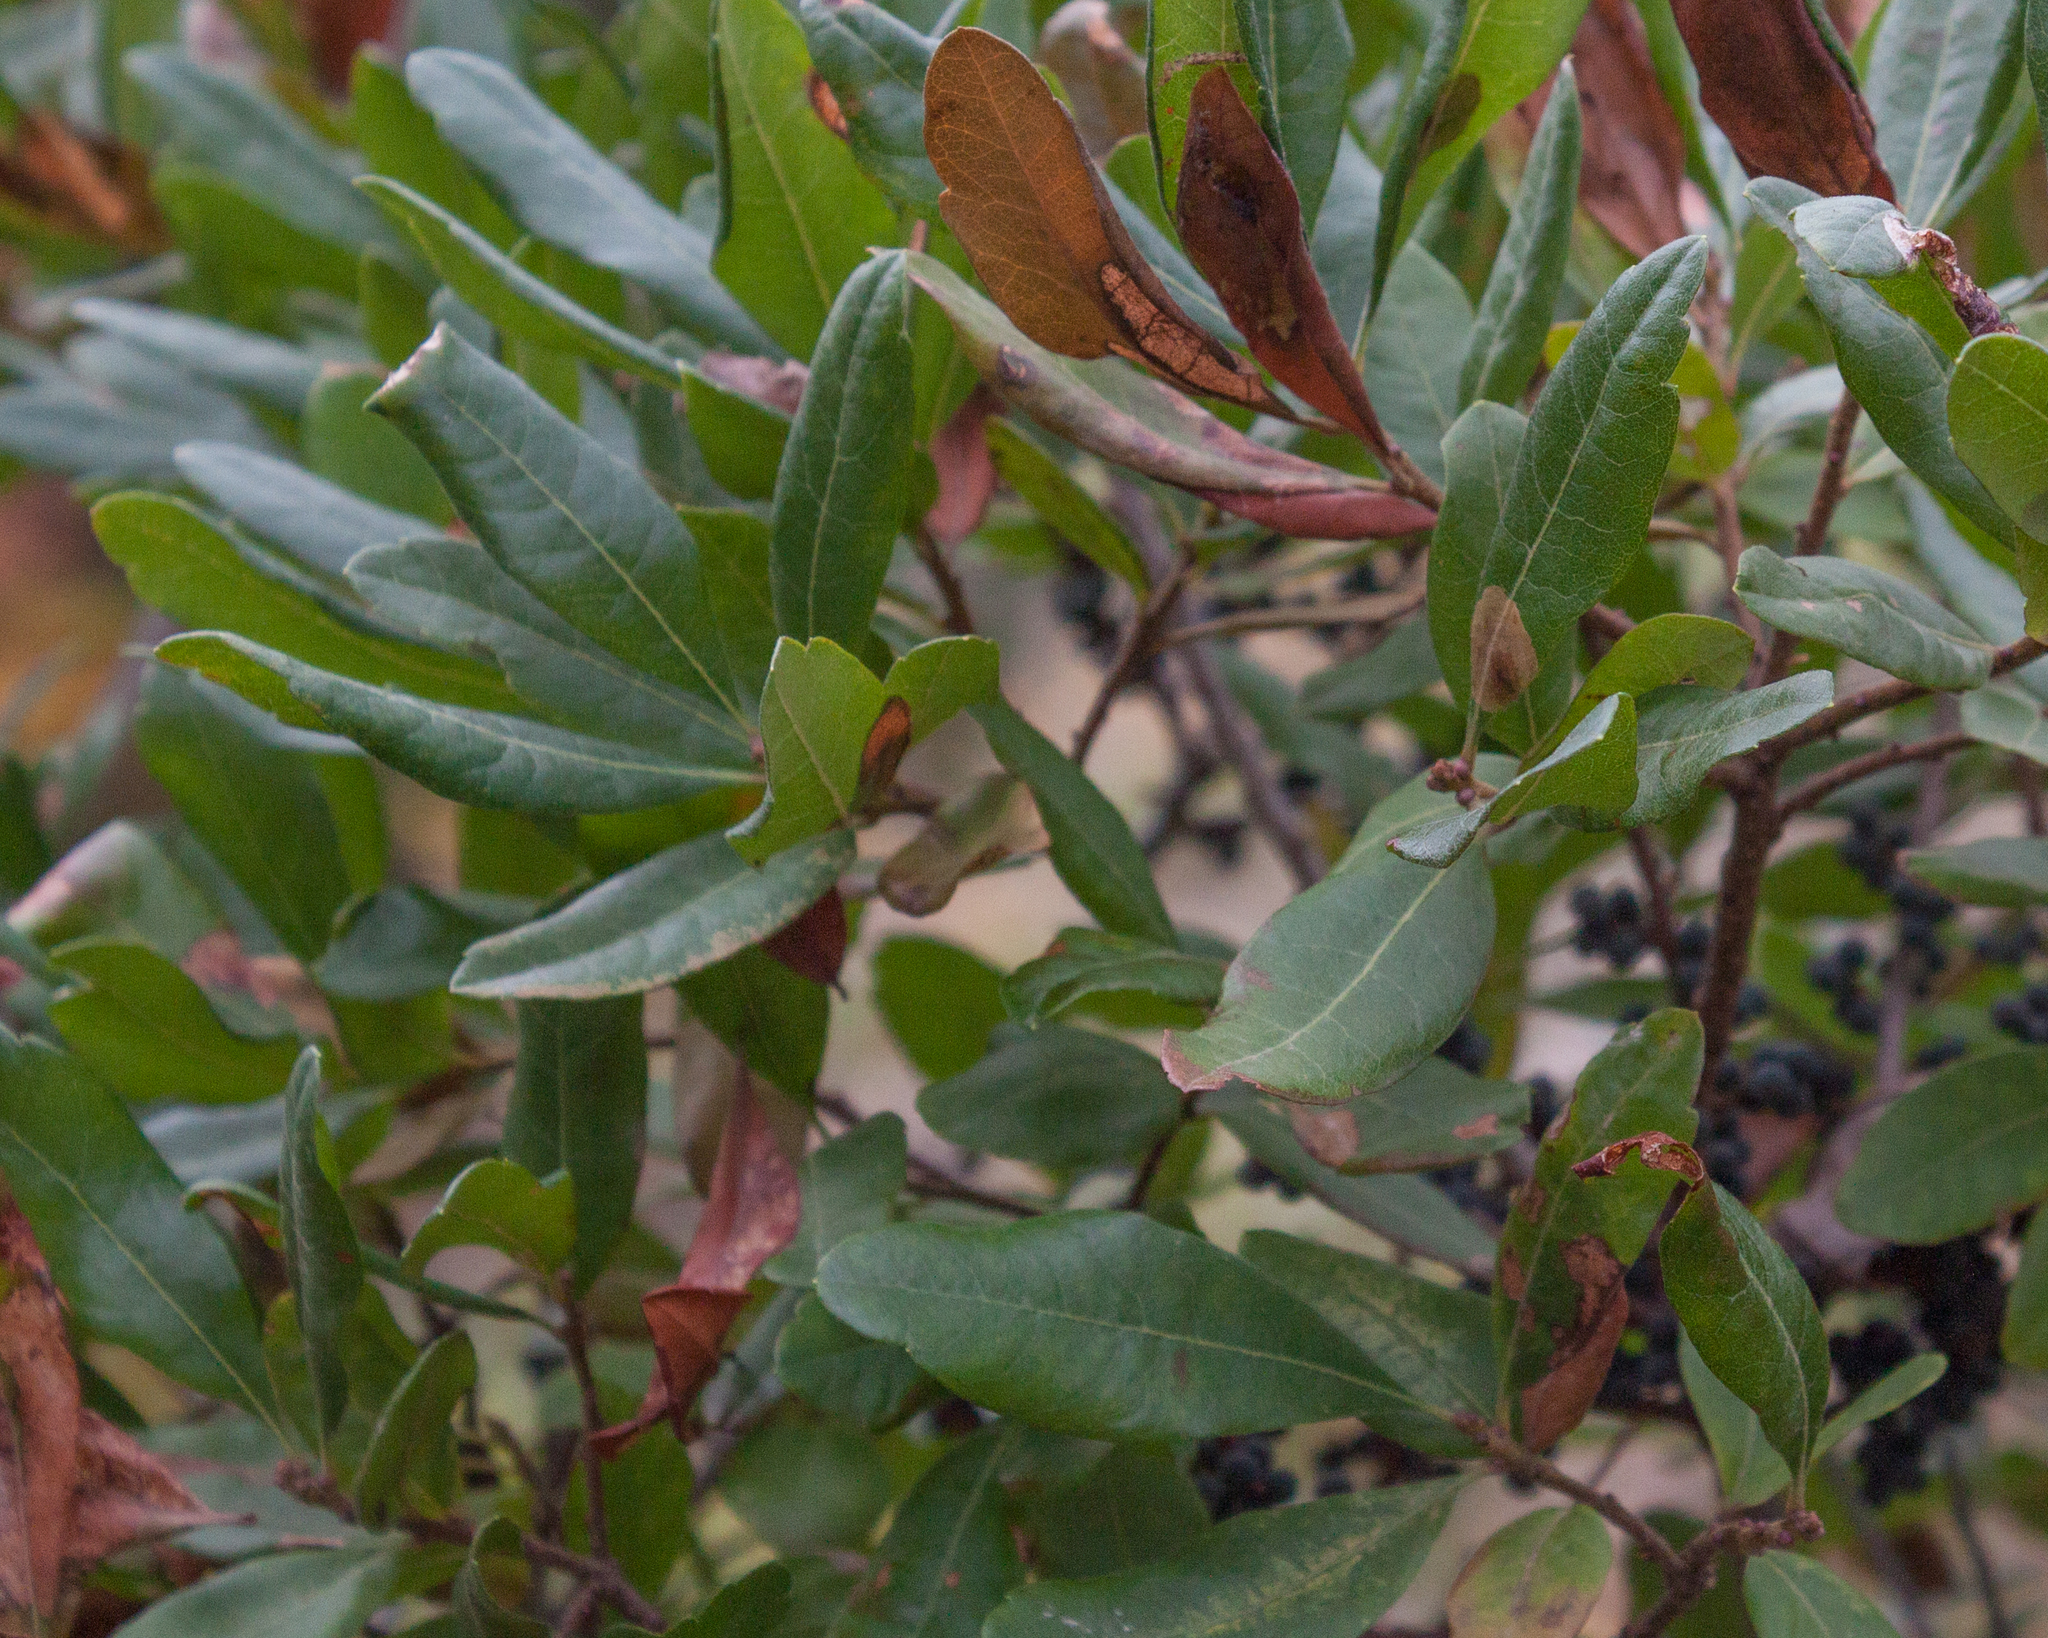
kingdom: Plantae
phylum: Tracheophyta
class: Magnoliopsida
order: Fagales
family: Myricaceae
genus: Morella
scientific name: Morella pensylvanica
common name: Northern bayberry
